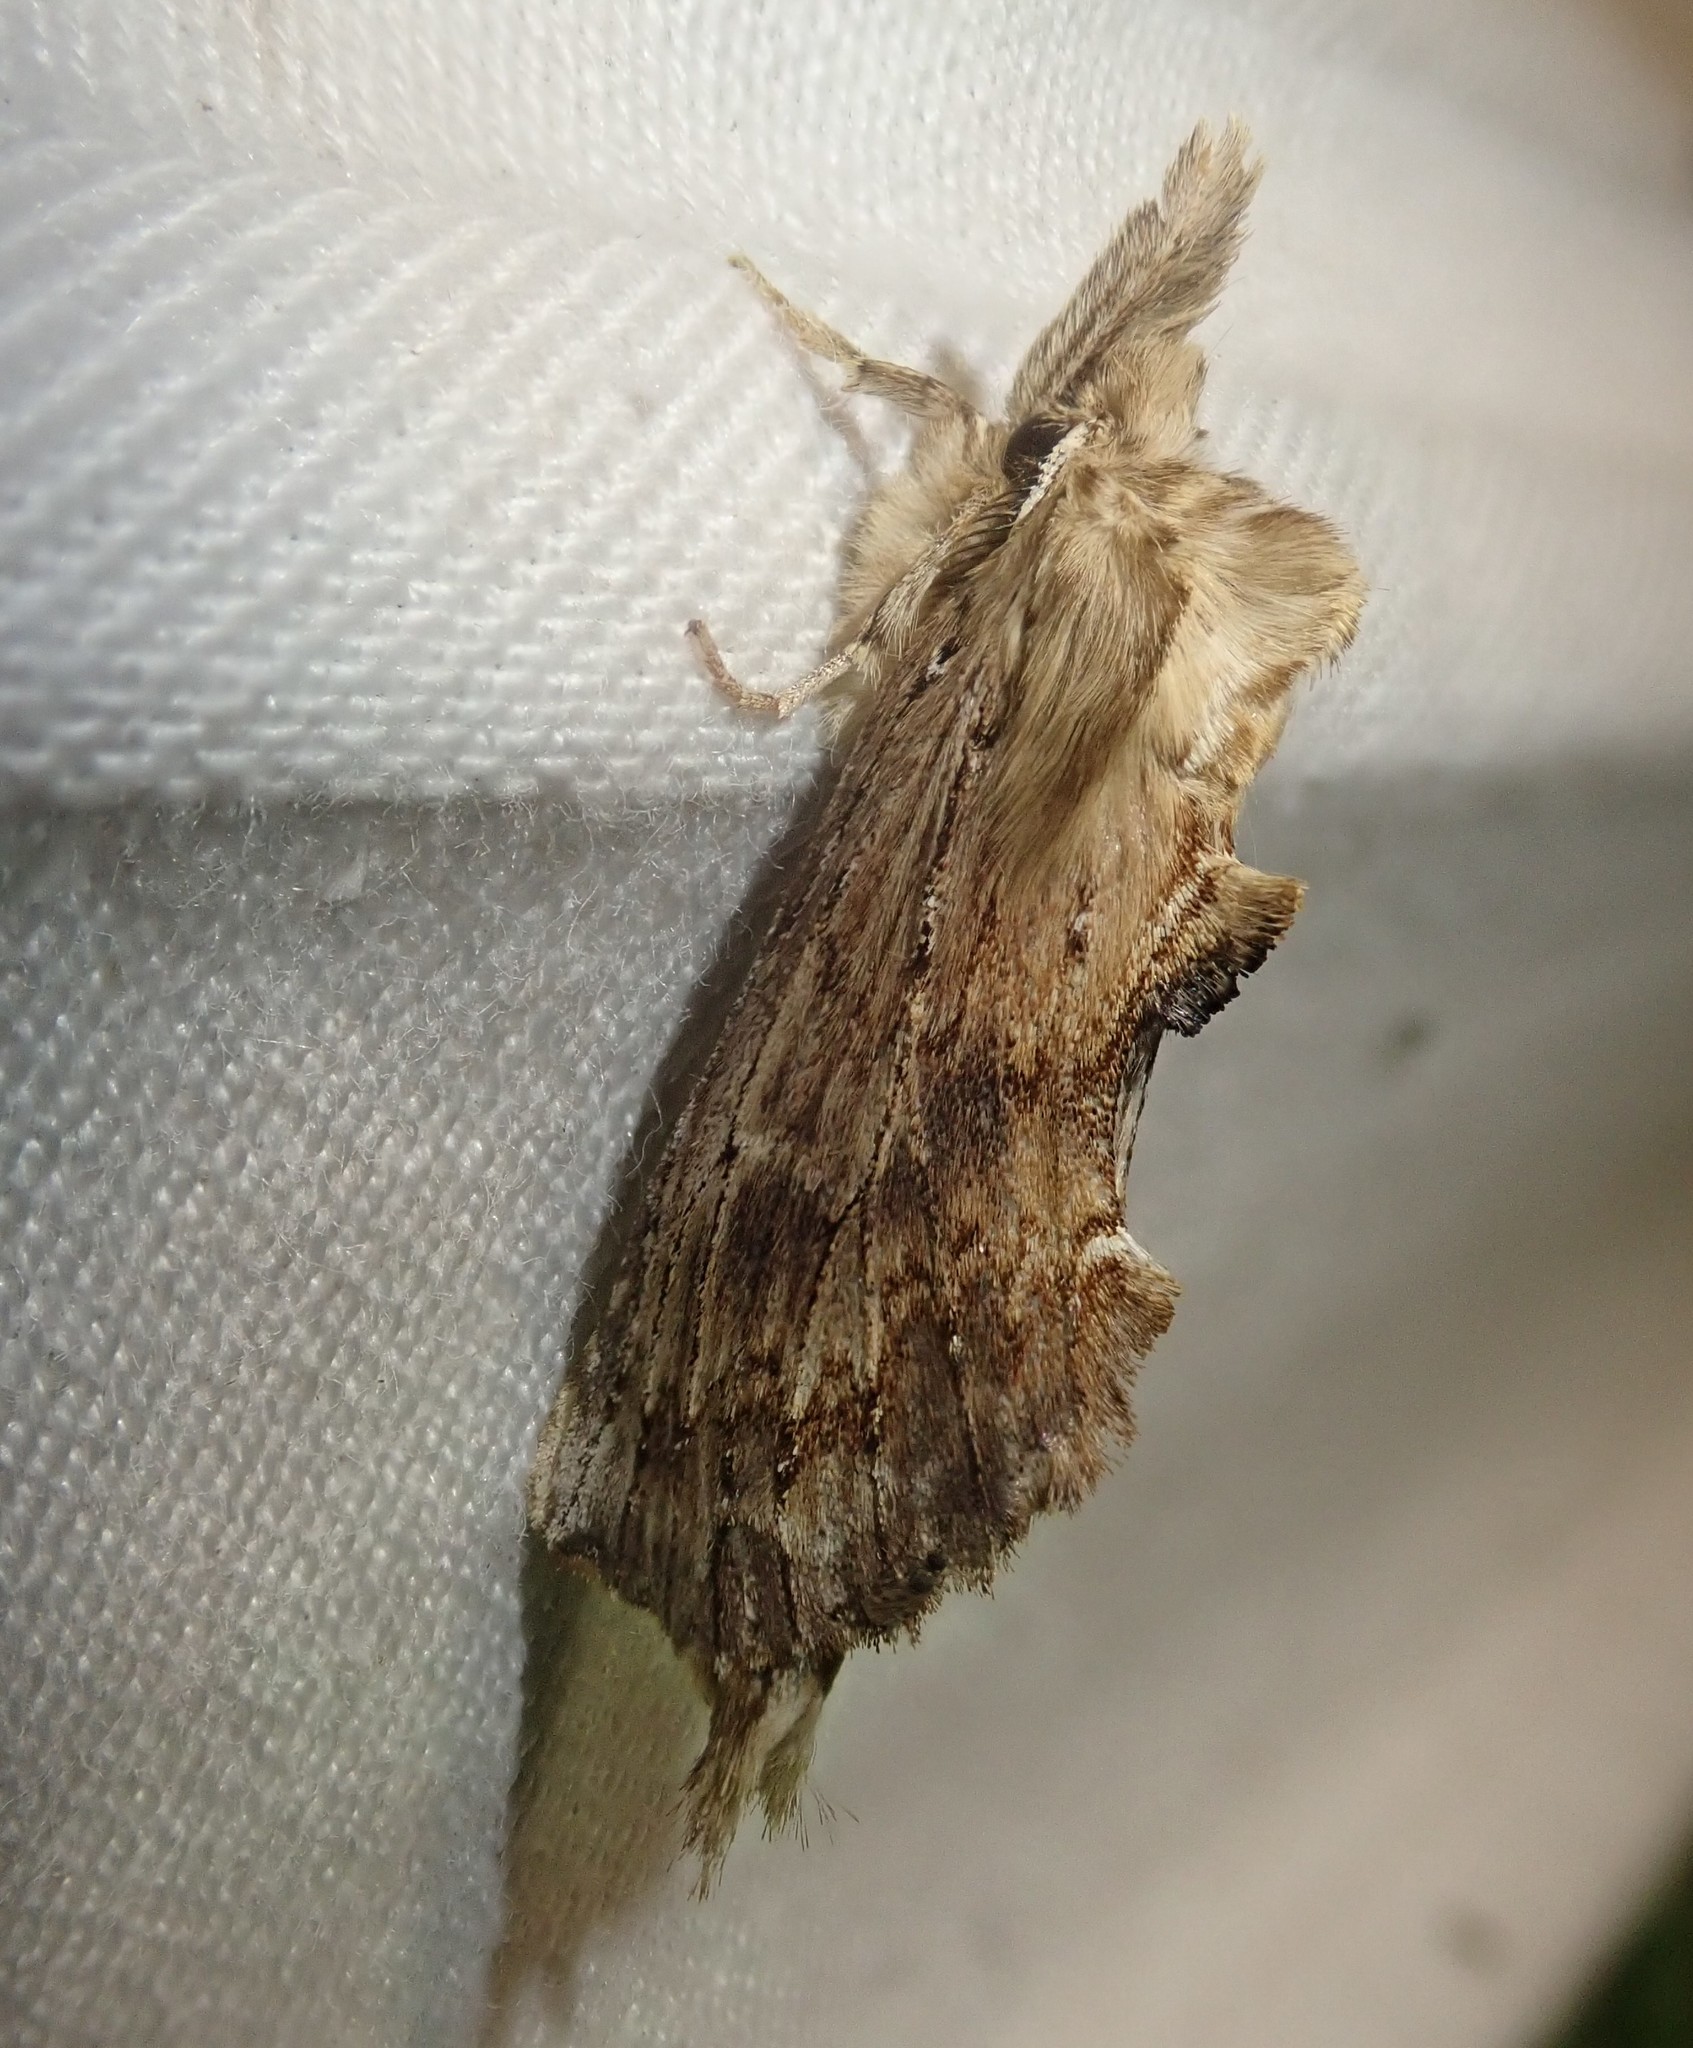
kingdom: Animalia
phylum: Arthropoda
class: Insecta
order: Lepidoptera
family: Notodontidae
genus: Pterostoma
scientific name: Pterostoma palpina
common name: Pale prominent
